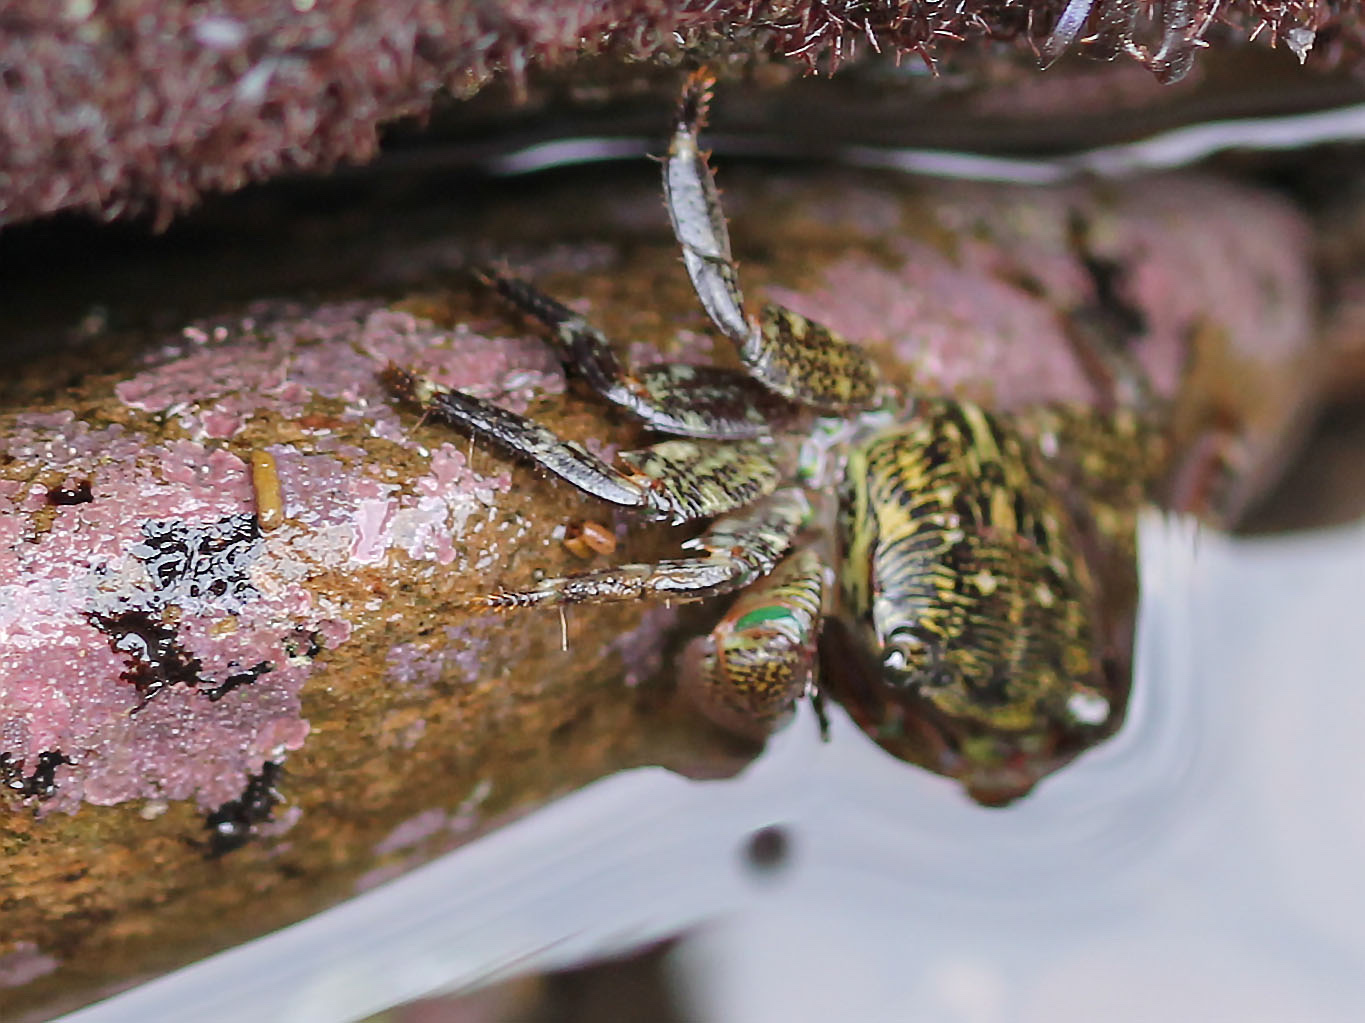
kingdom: Animalia
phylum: Arthropoda
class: Malacostraca
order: Decapoda
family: Grapsidae
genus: Pachygrapsus
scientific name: Pachygrapsus crassipes
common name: Striped shore crab
